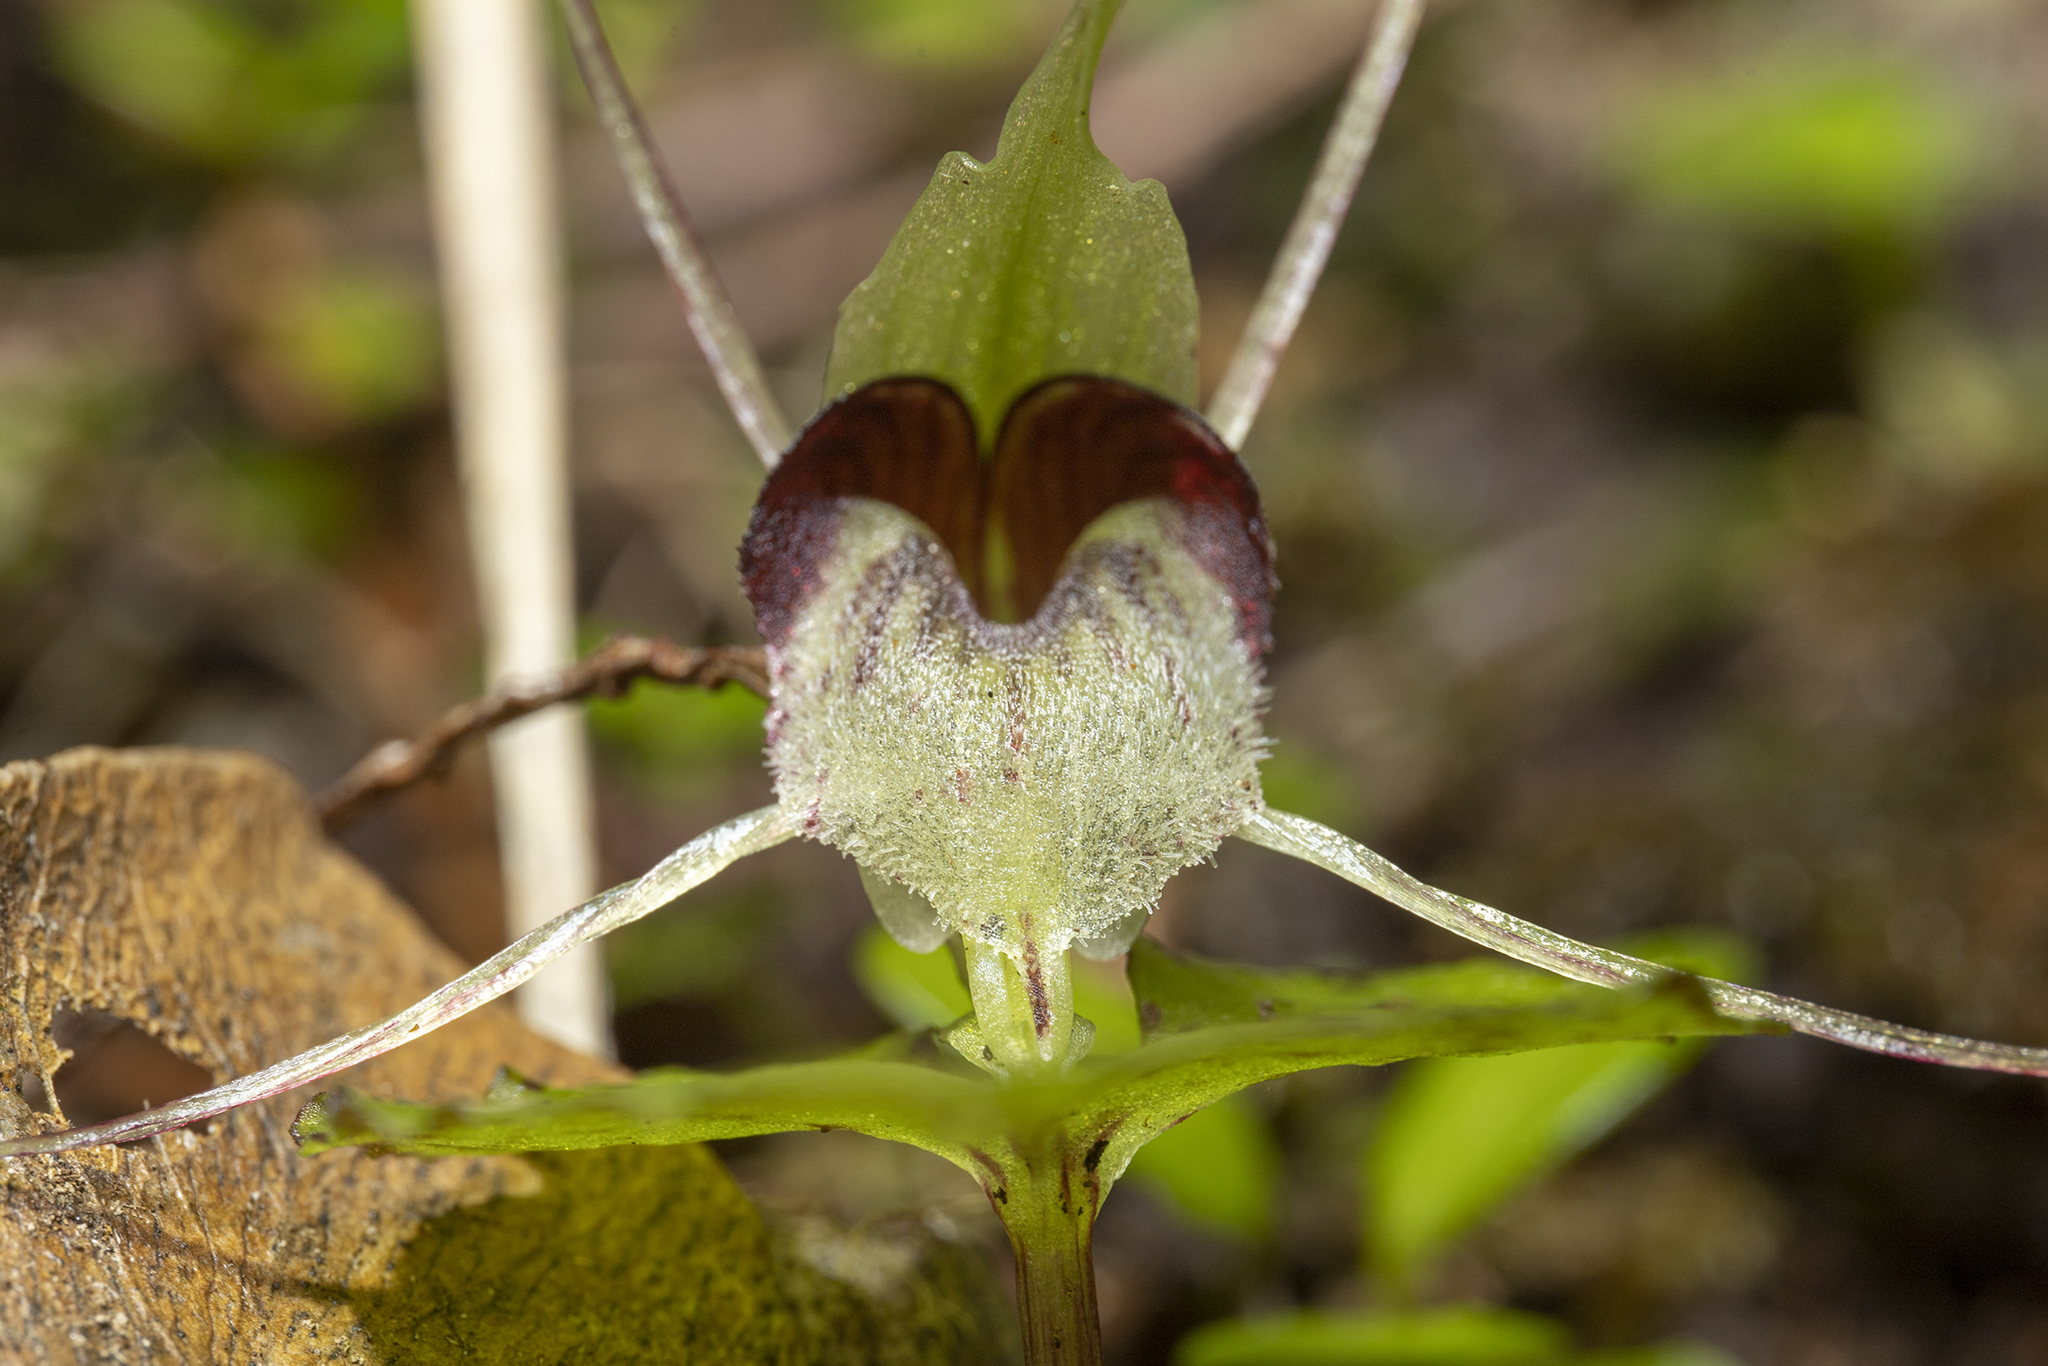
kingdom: Plantae
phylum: Tracheophyta
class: Liliopsida
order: Asparagales
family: Orchidaceae
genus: Corybas
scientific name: Corybas acuminatus
